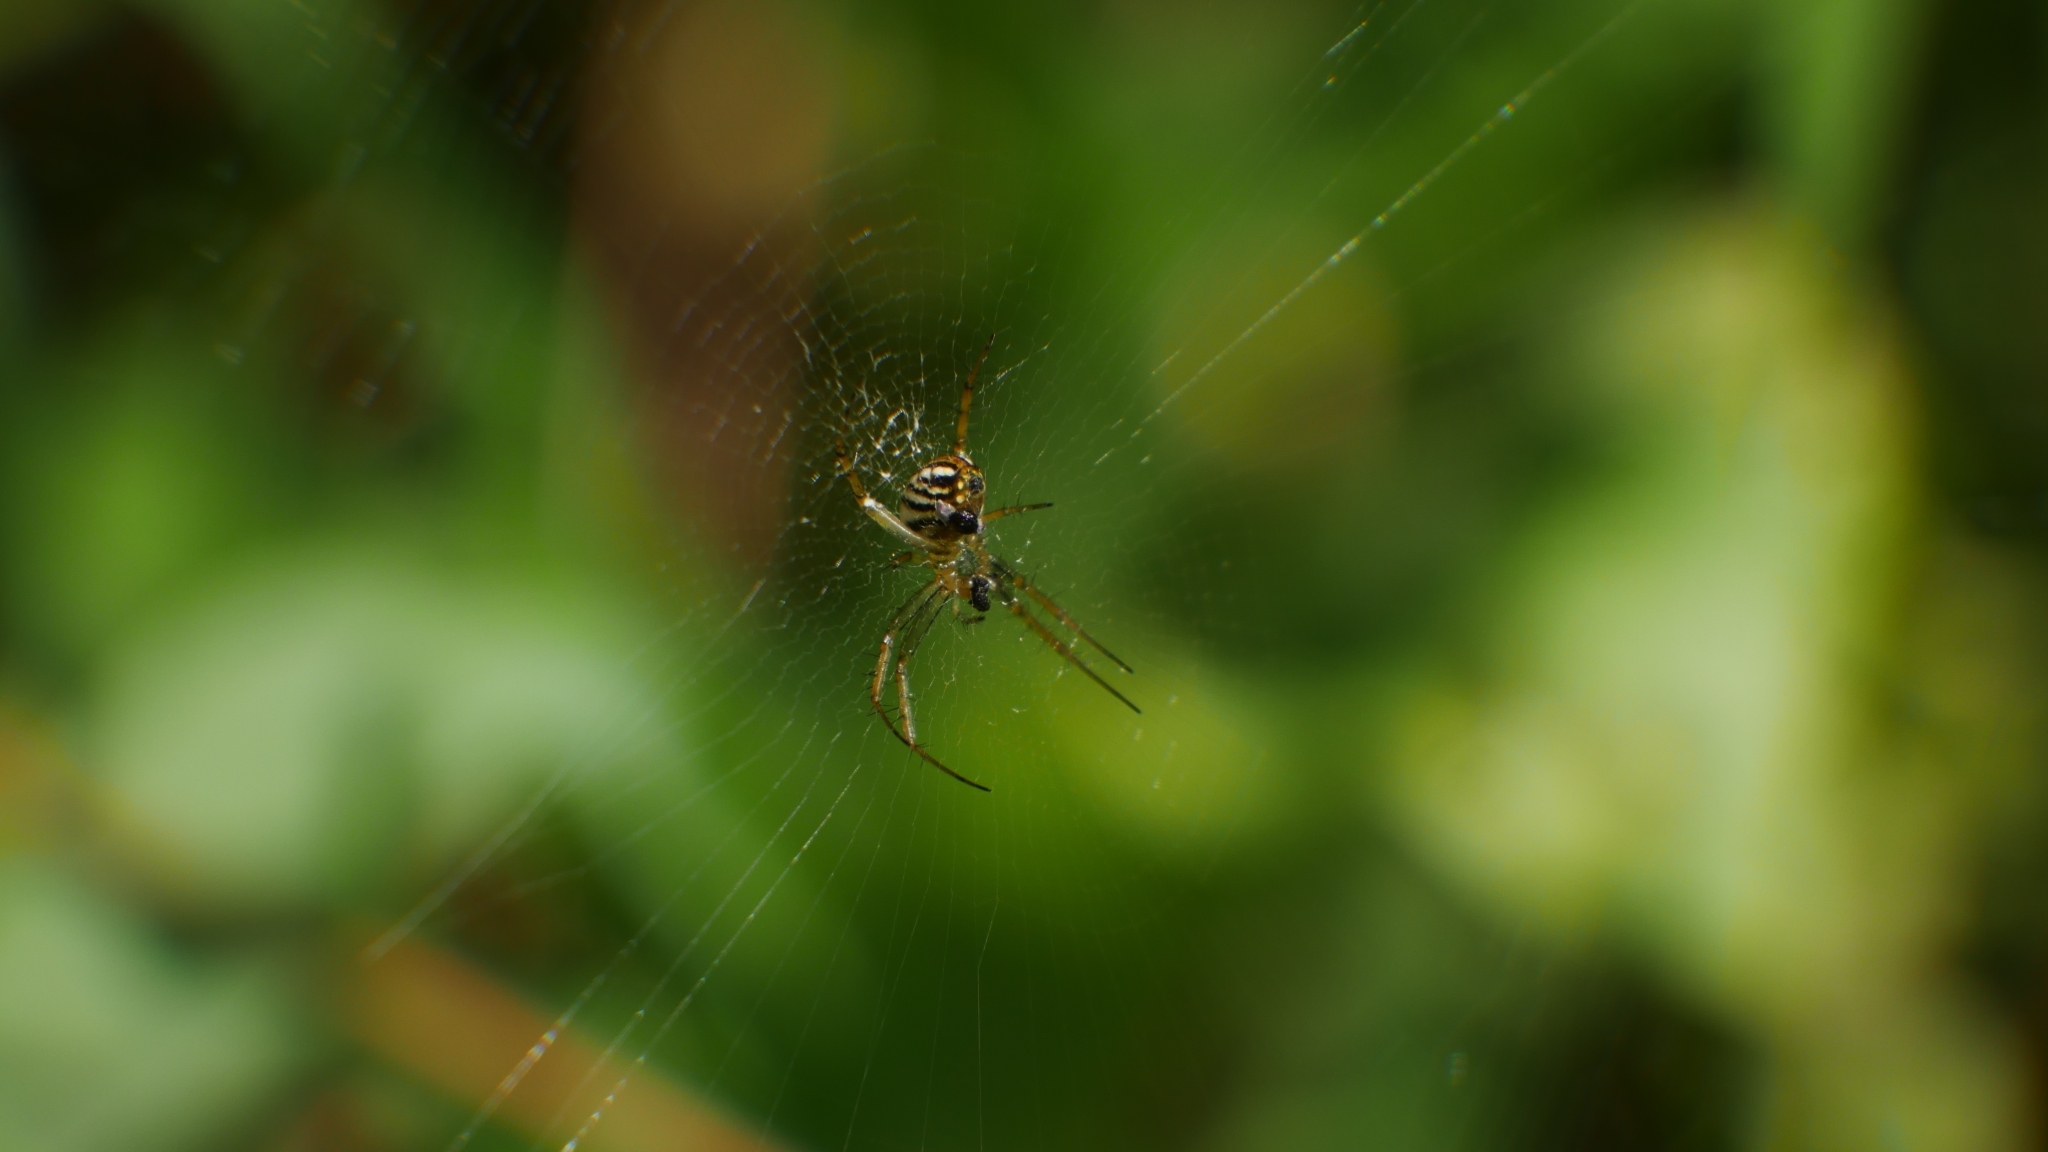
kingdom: Animalia
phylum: Arthropoda
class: Arachnida
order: Araneae
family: Araneidae
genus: Mangora
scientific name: Mangora gibberosa
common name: Lined orbweaver
